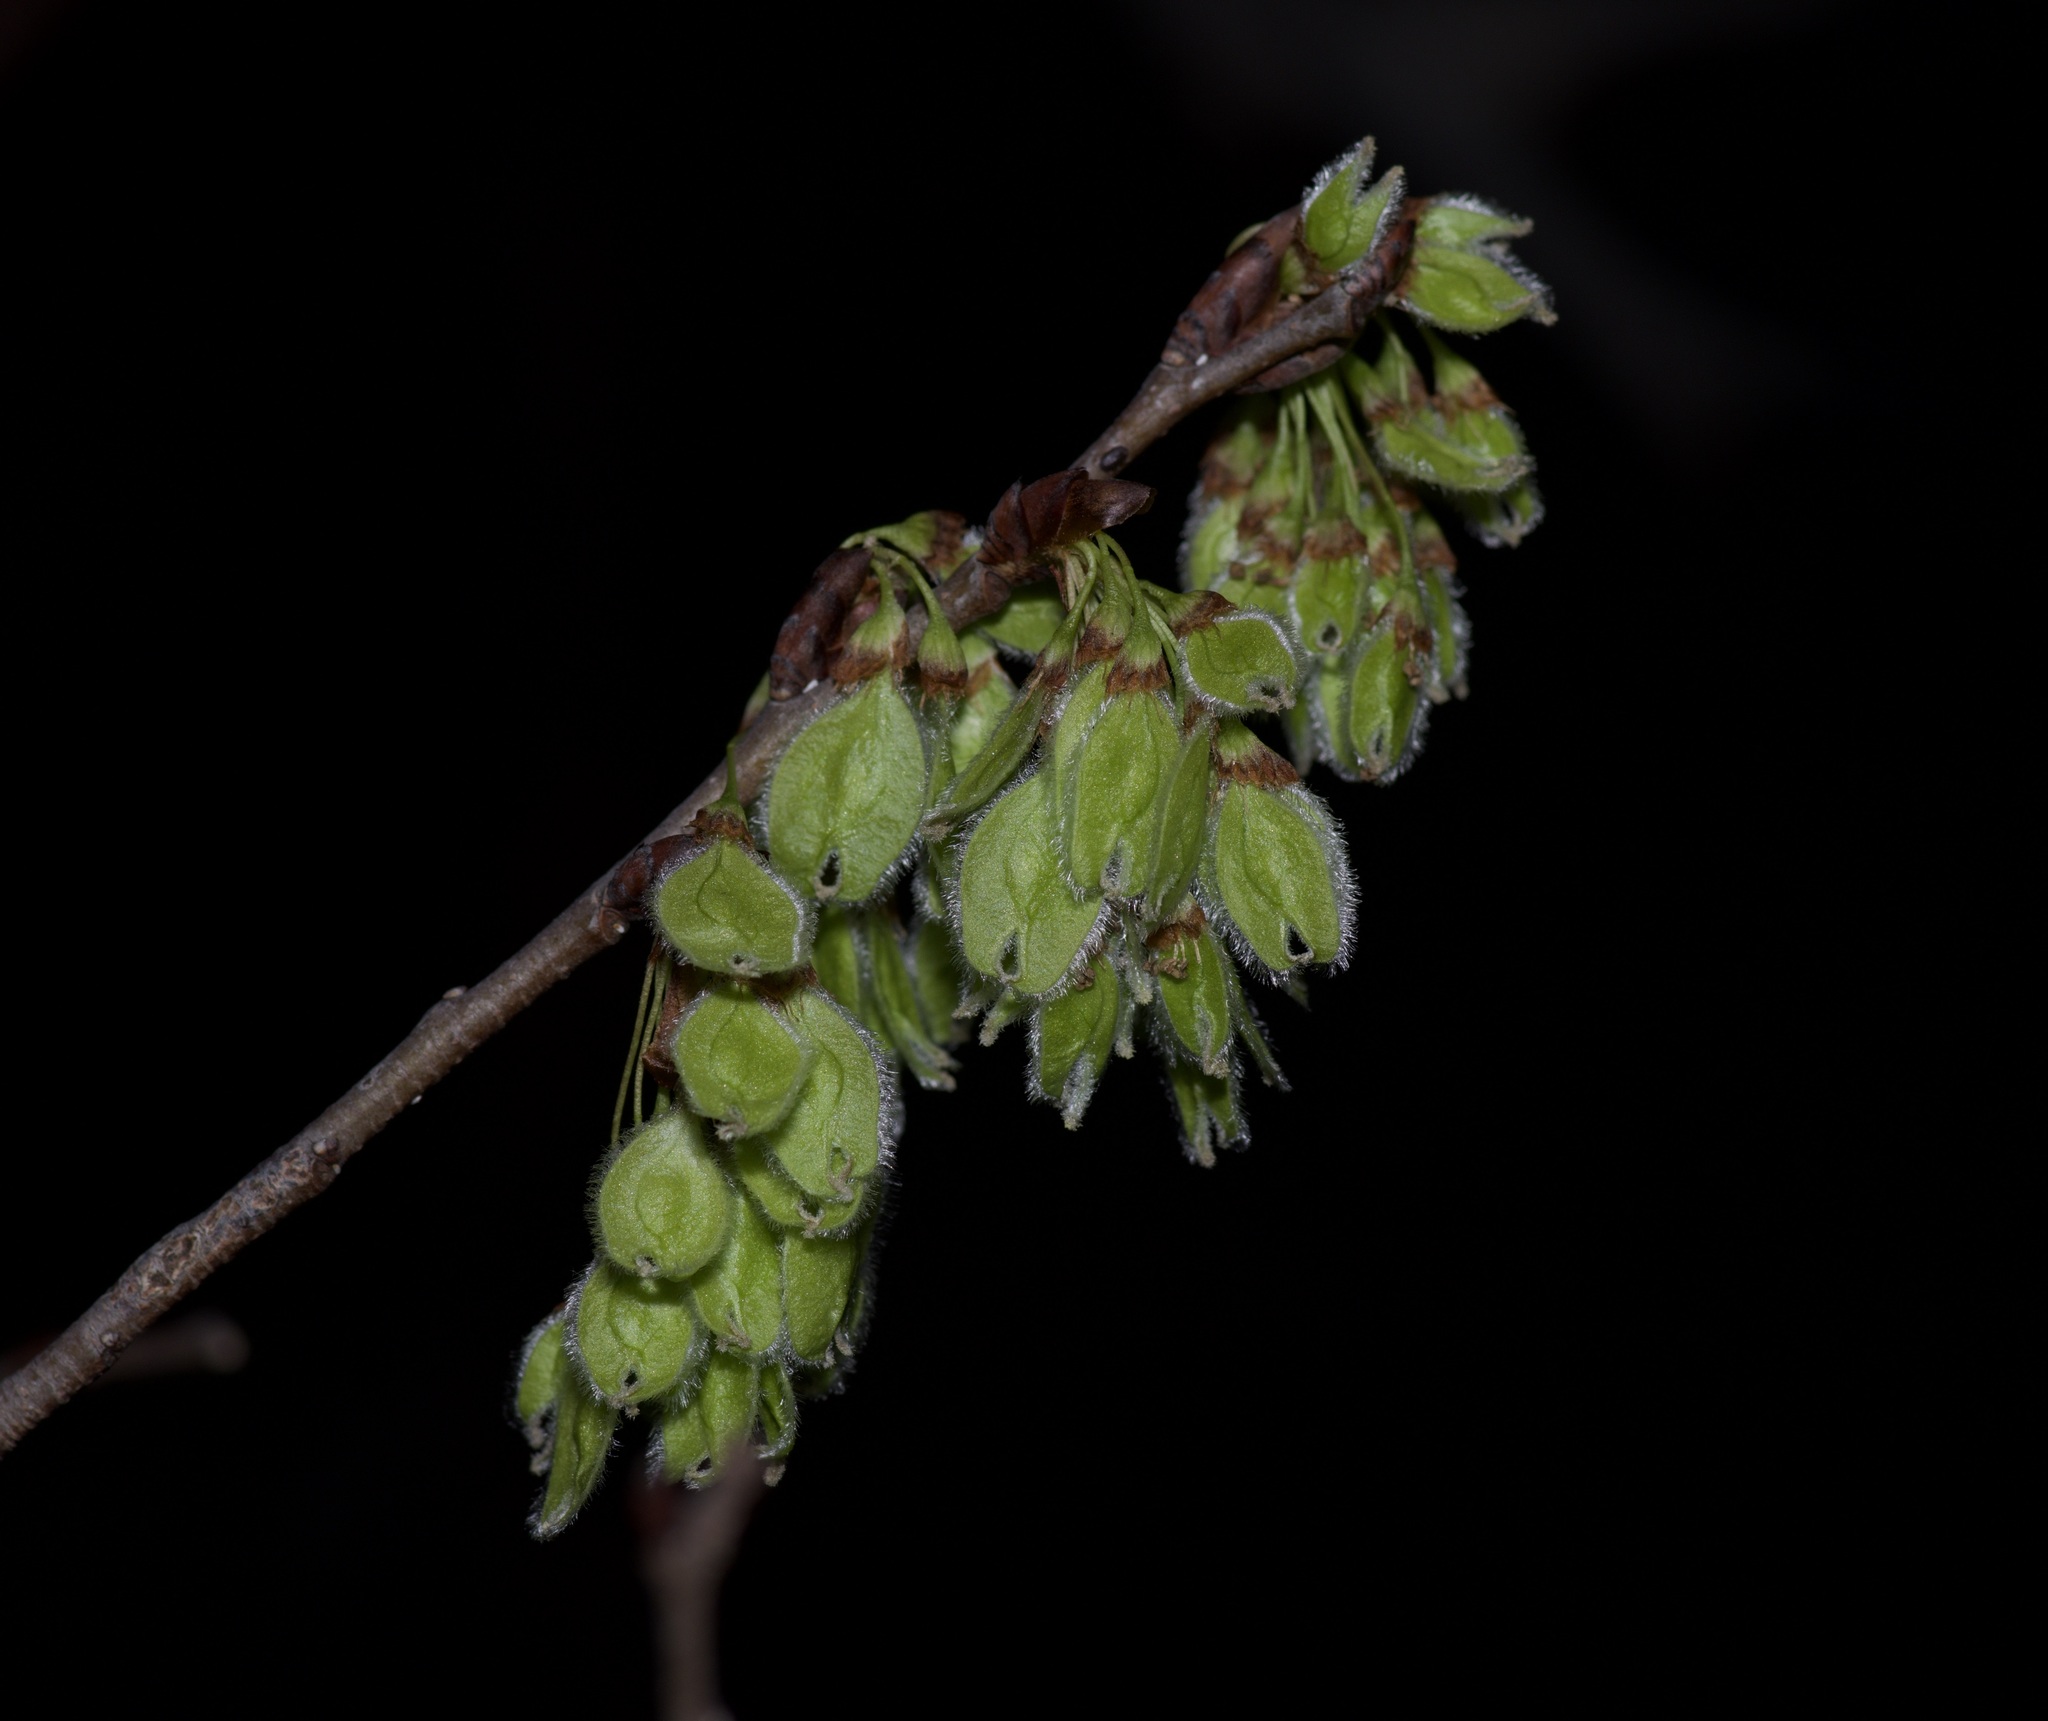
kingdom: Plantae
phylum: Tracheophyta
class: Magnoliopsida
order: Rosales
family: Ulmaceae
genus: Ulmus
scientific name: Ulmus americana
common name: American elm
